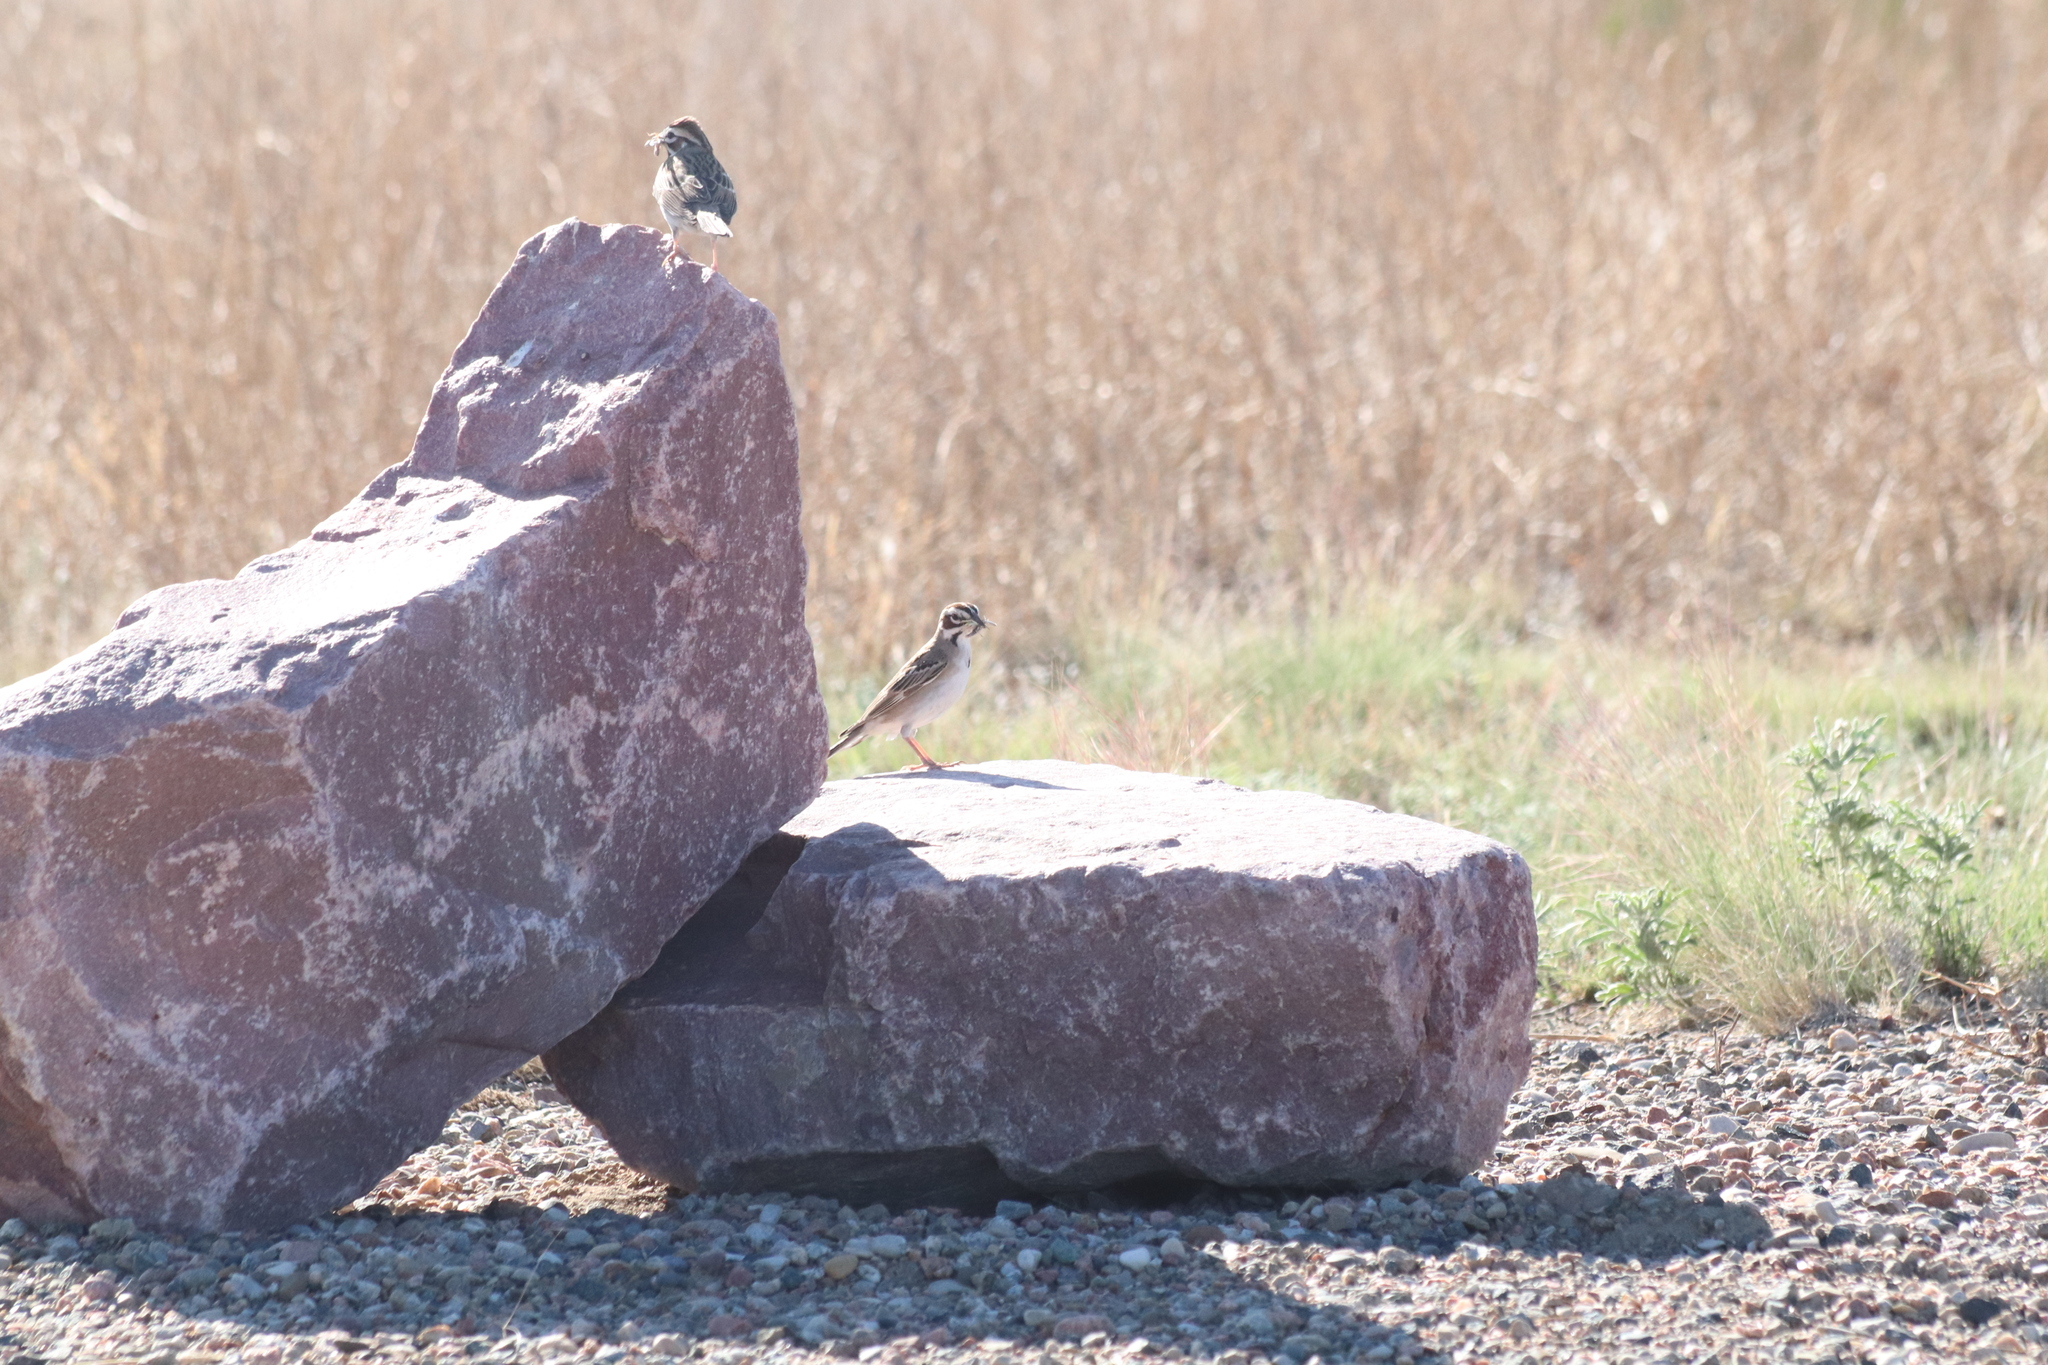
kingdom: Animalia
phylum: Chordata
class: Aves
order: Passeriformes
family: Passerellidae
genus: Chondestes
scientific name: Chondestes grammacus
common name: Lark sparrow
